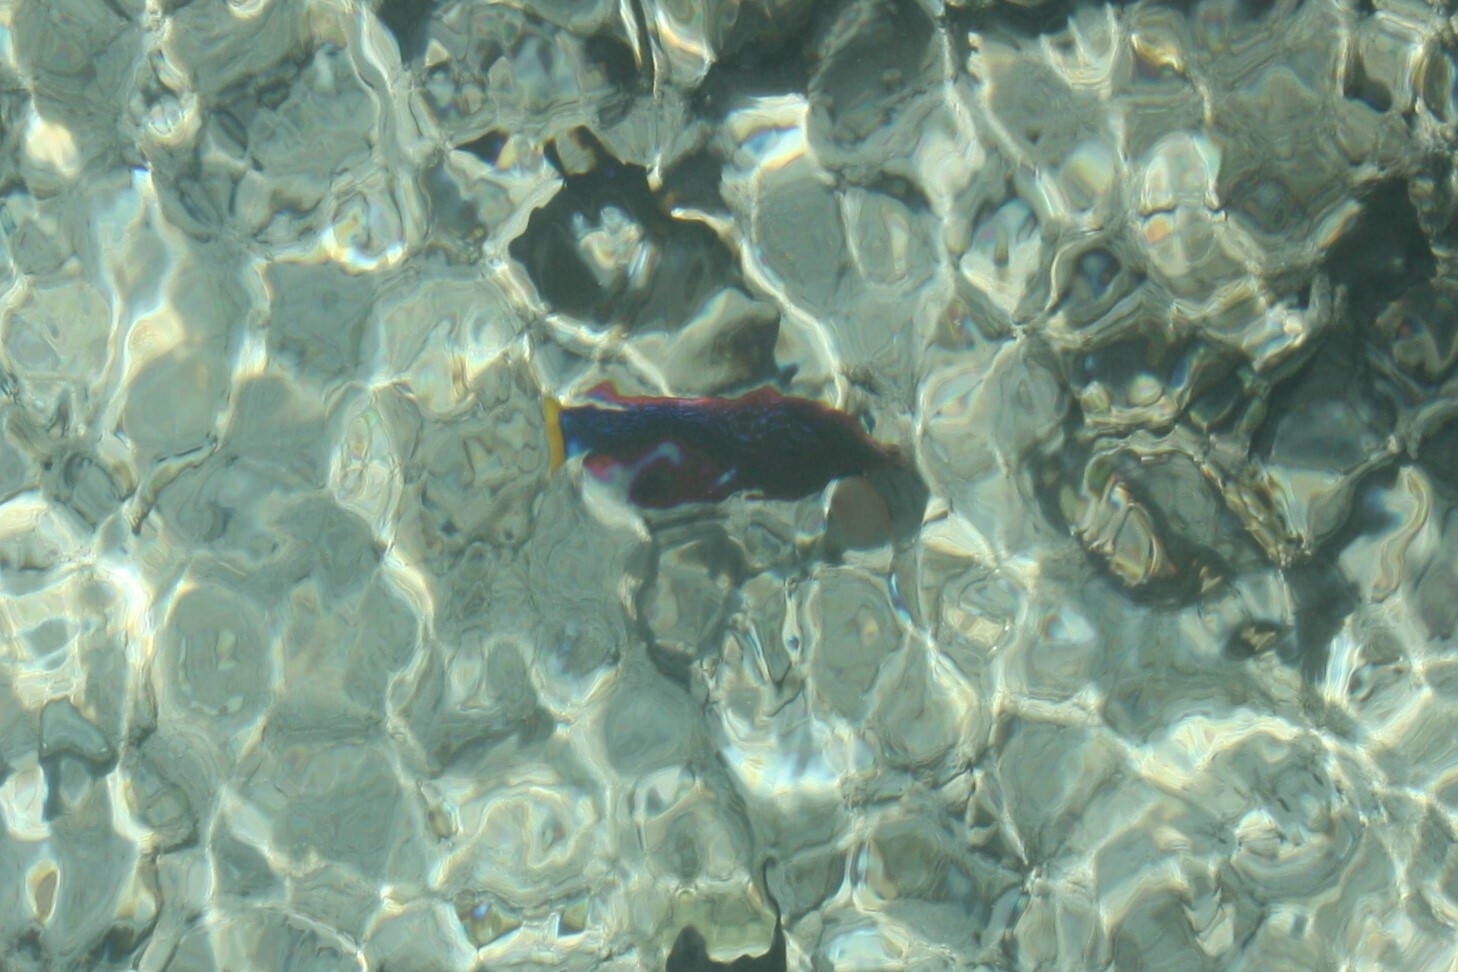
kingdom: Animalia
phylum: Chordata
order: Perciformes
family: Labridae
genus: Coris
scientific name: Coris gaimard
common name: Yellowtail coris
